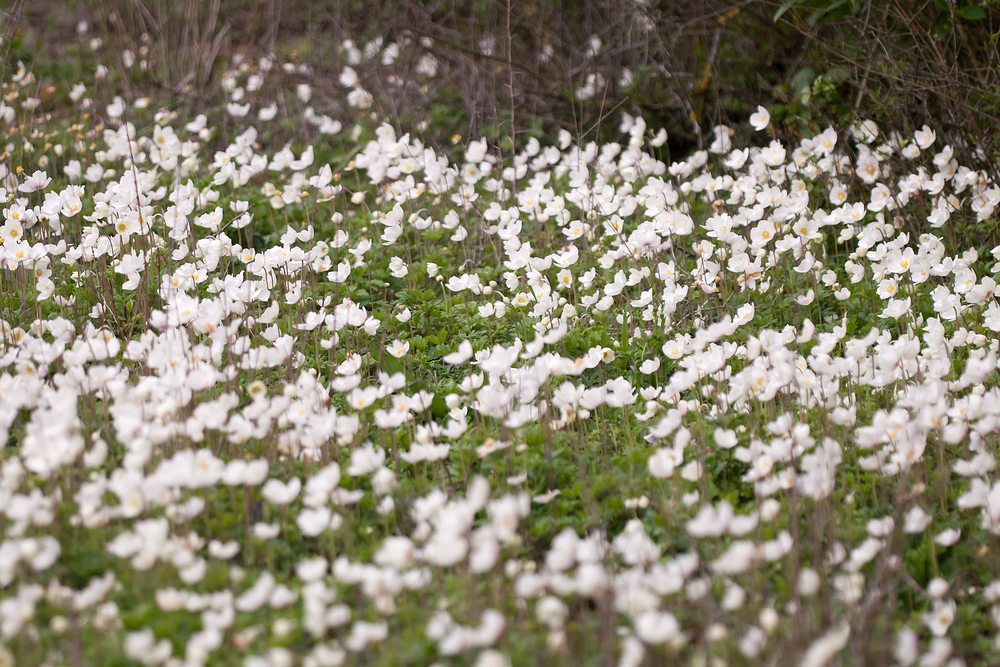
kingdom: Plantae
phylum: Tracheophyta
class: Magnoliopsida
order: Ranunculales
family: Ranunculaceae
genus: Anemone
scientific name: Anemone sylvestris
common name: Snowdrop anemone
